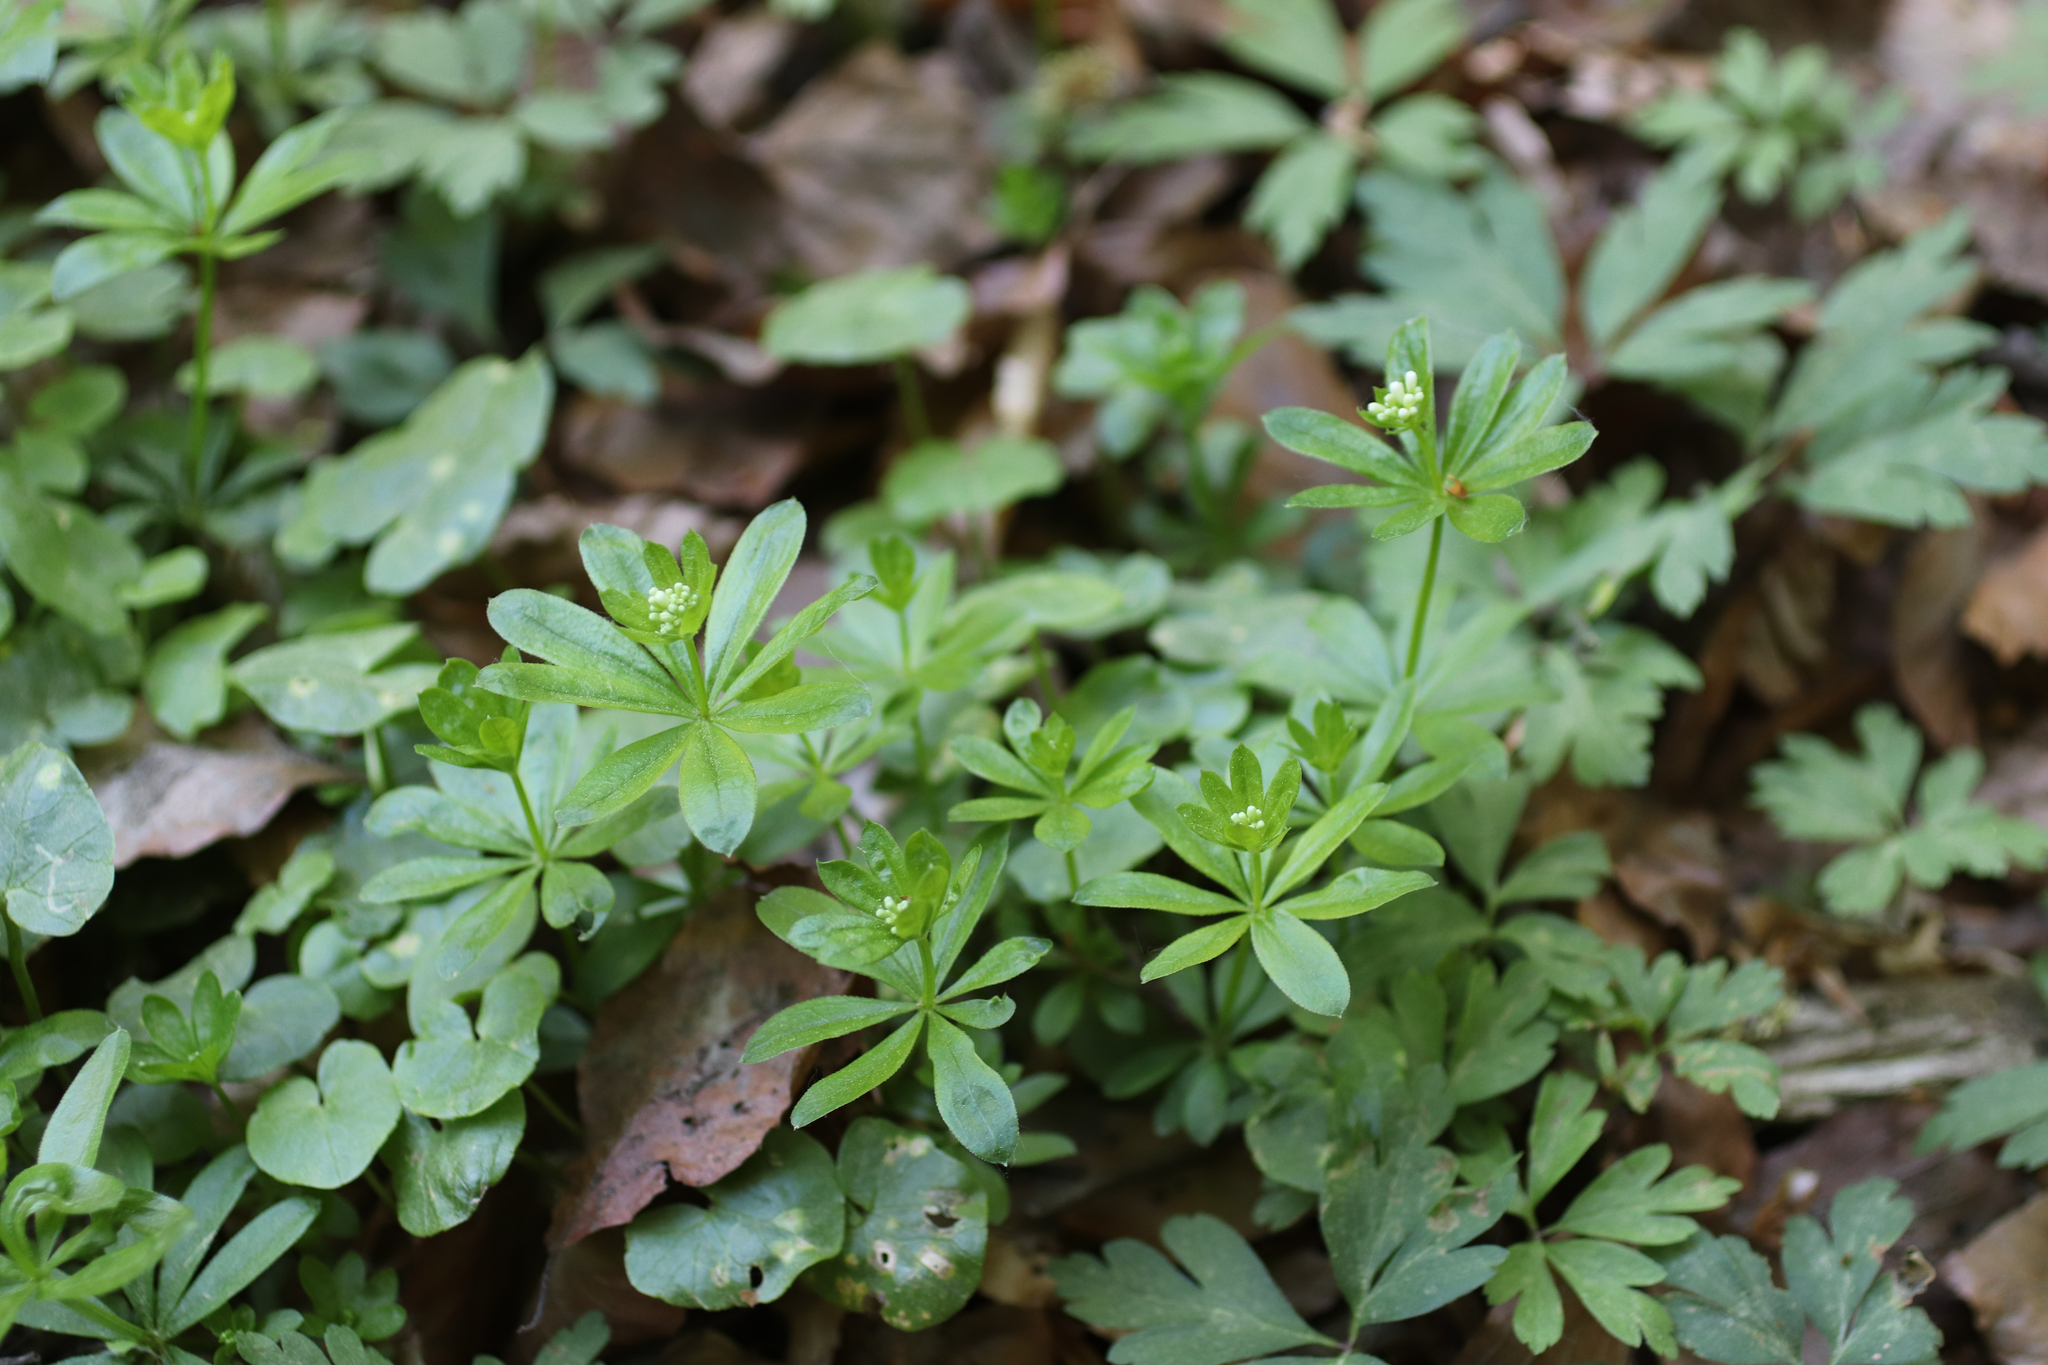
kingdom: Plantae
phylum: Tracheophyta
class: Magnoliopsida
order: Gentianales
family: Rubiaceae
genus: Galium
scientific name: Galium odoratum
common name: Sweet woodruff
